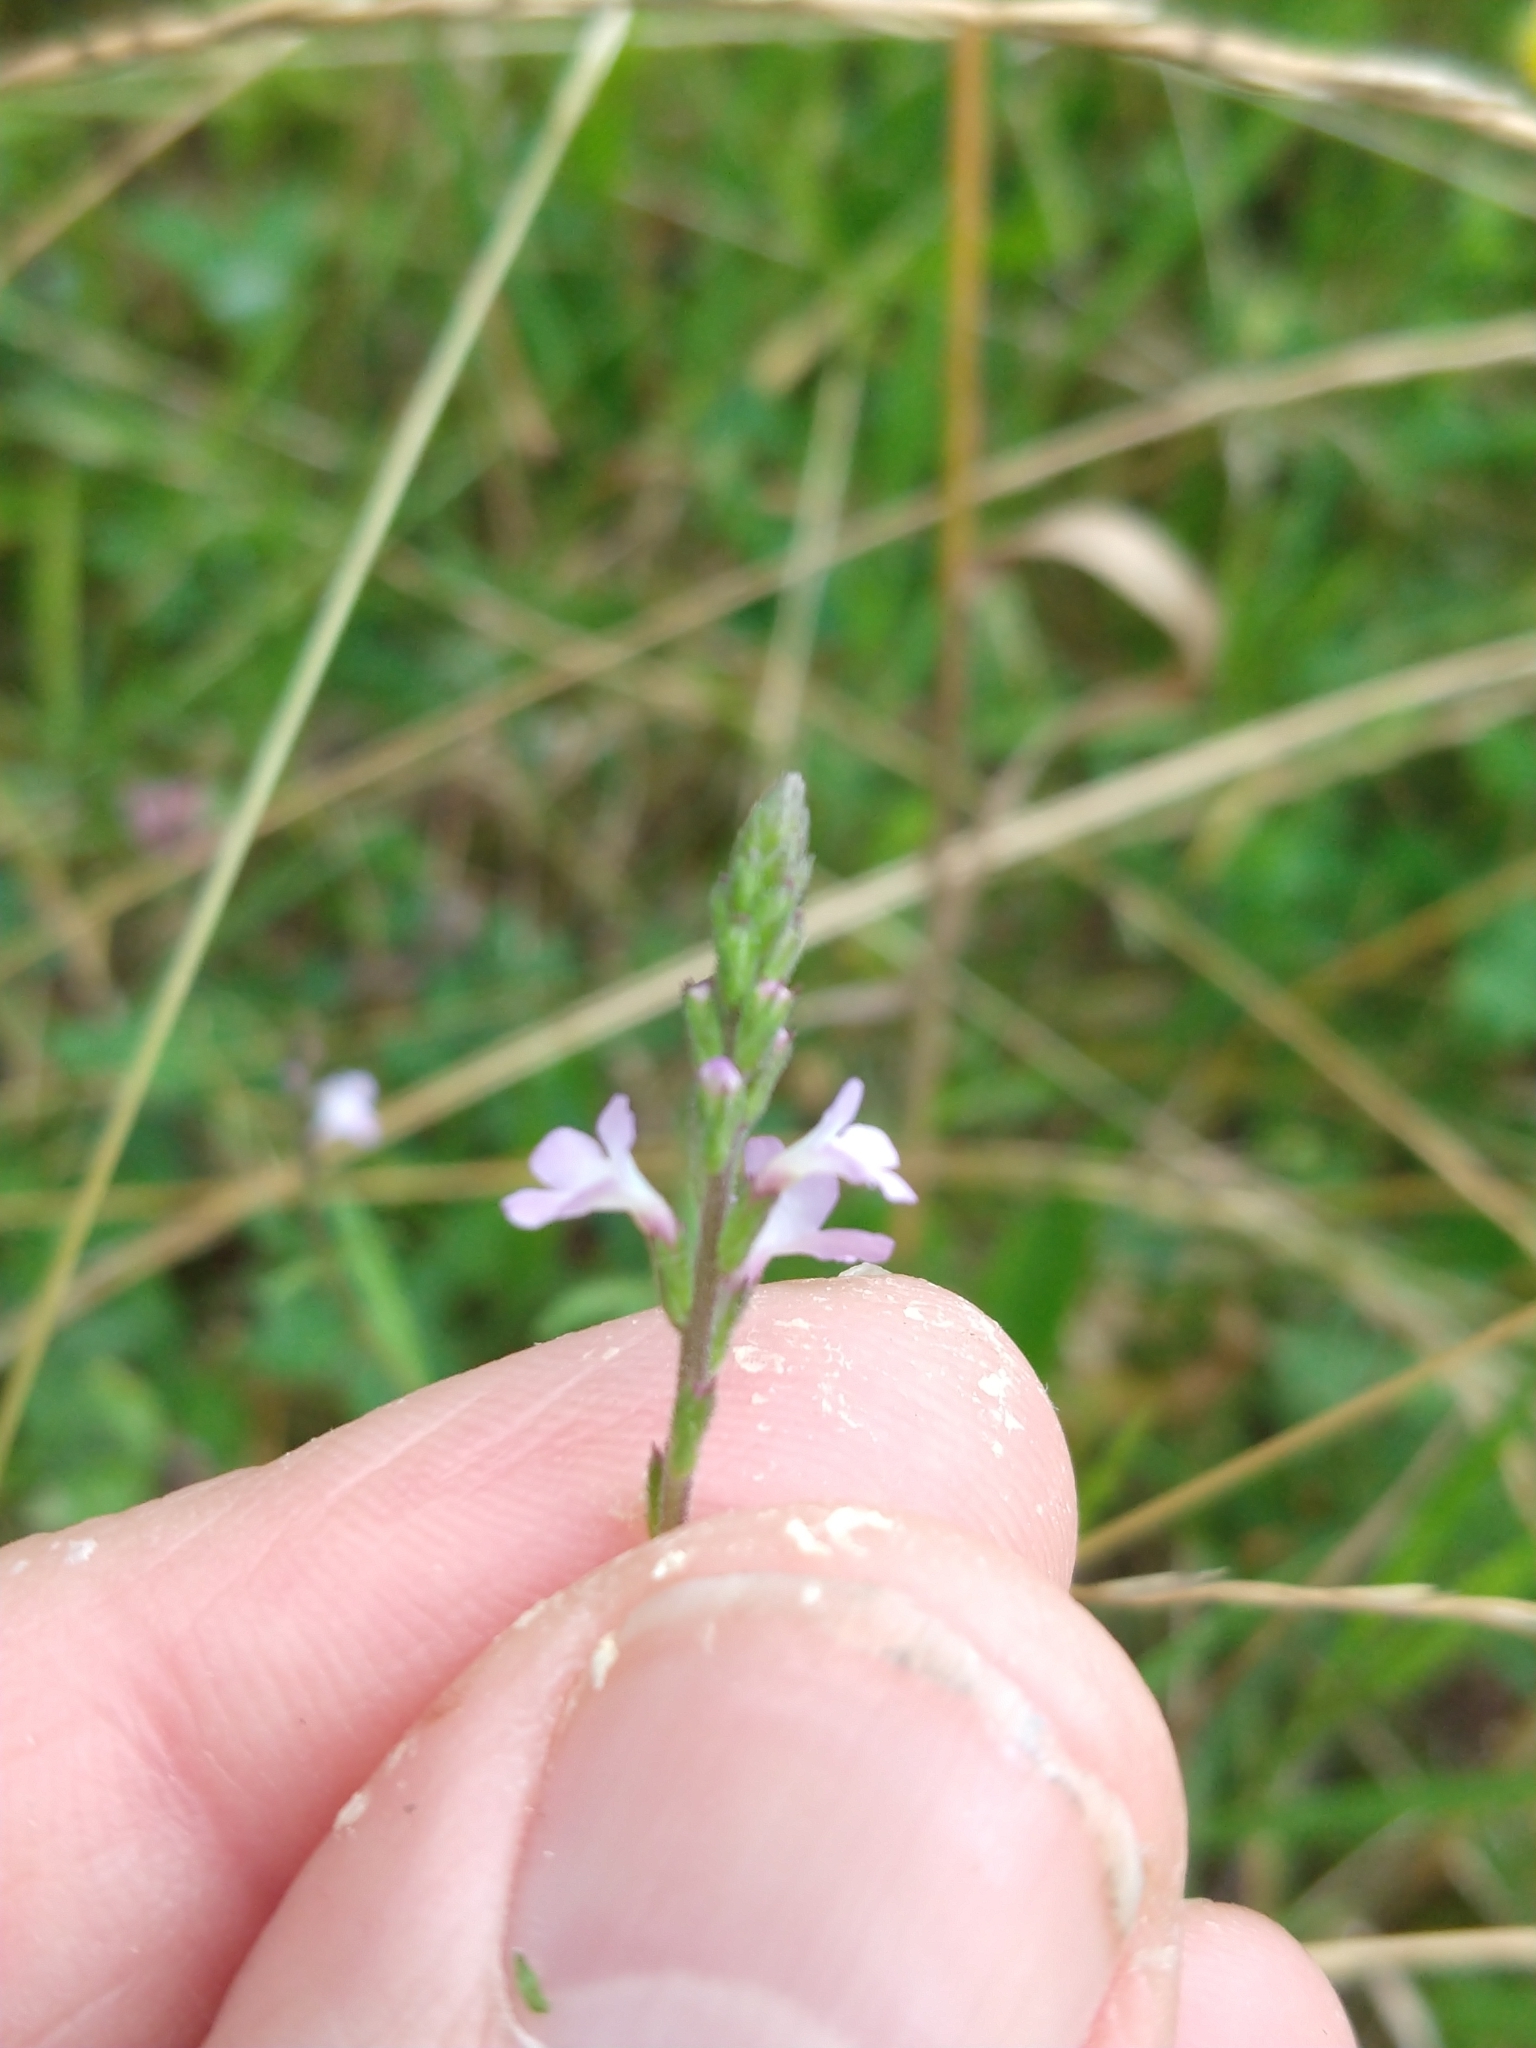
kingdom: Plantae
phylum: Tracheophyta
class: Magnoliopsida
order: Lamiales
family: Verbenaceae
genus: Verbena
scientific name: Verbena officinalis
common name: Vervain
